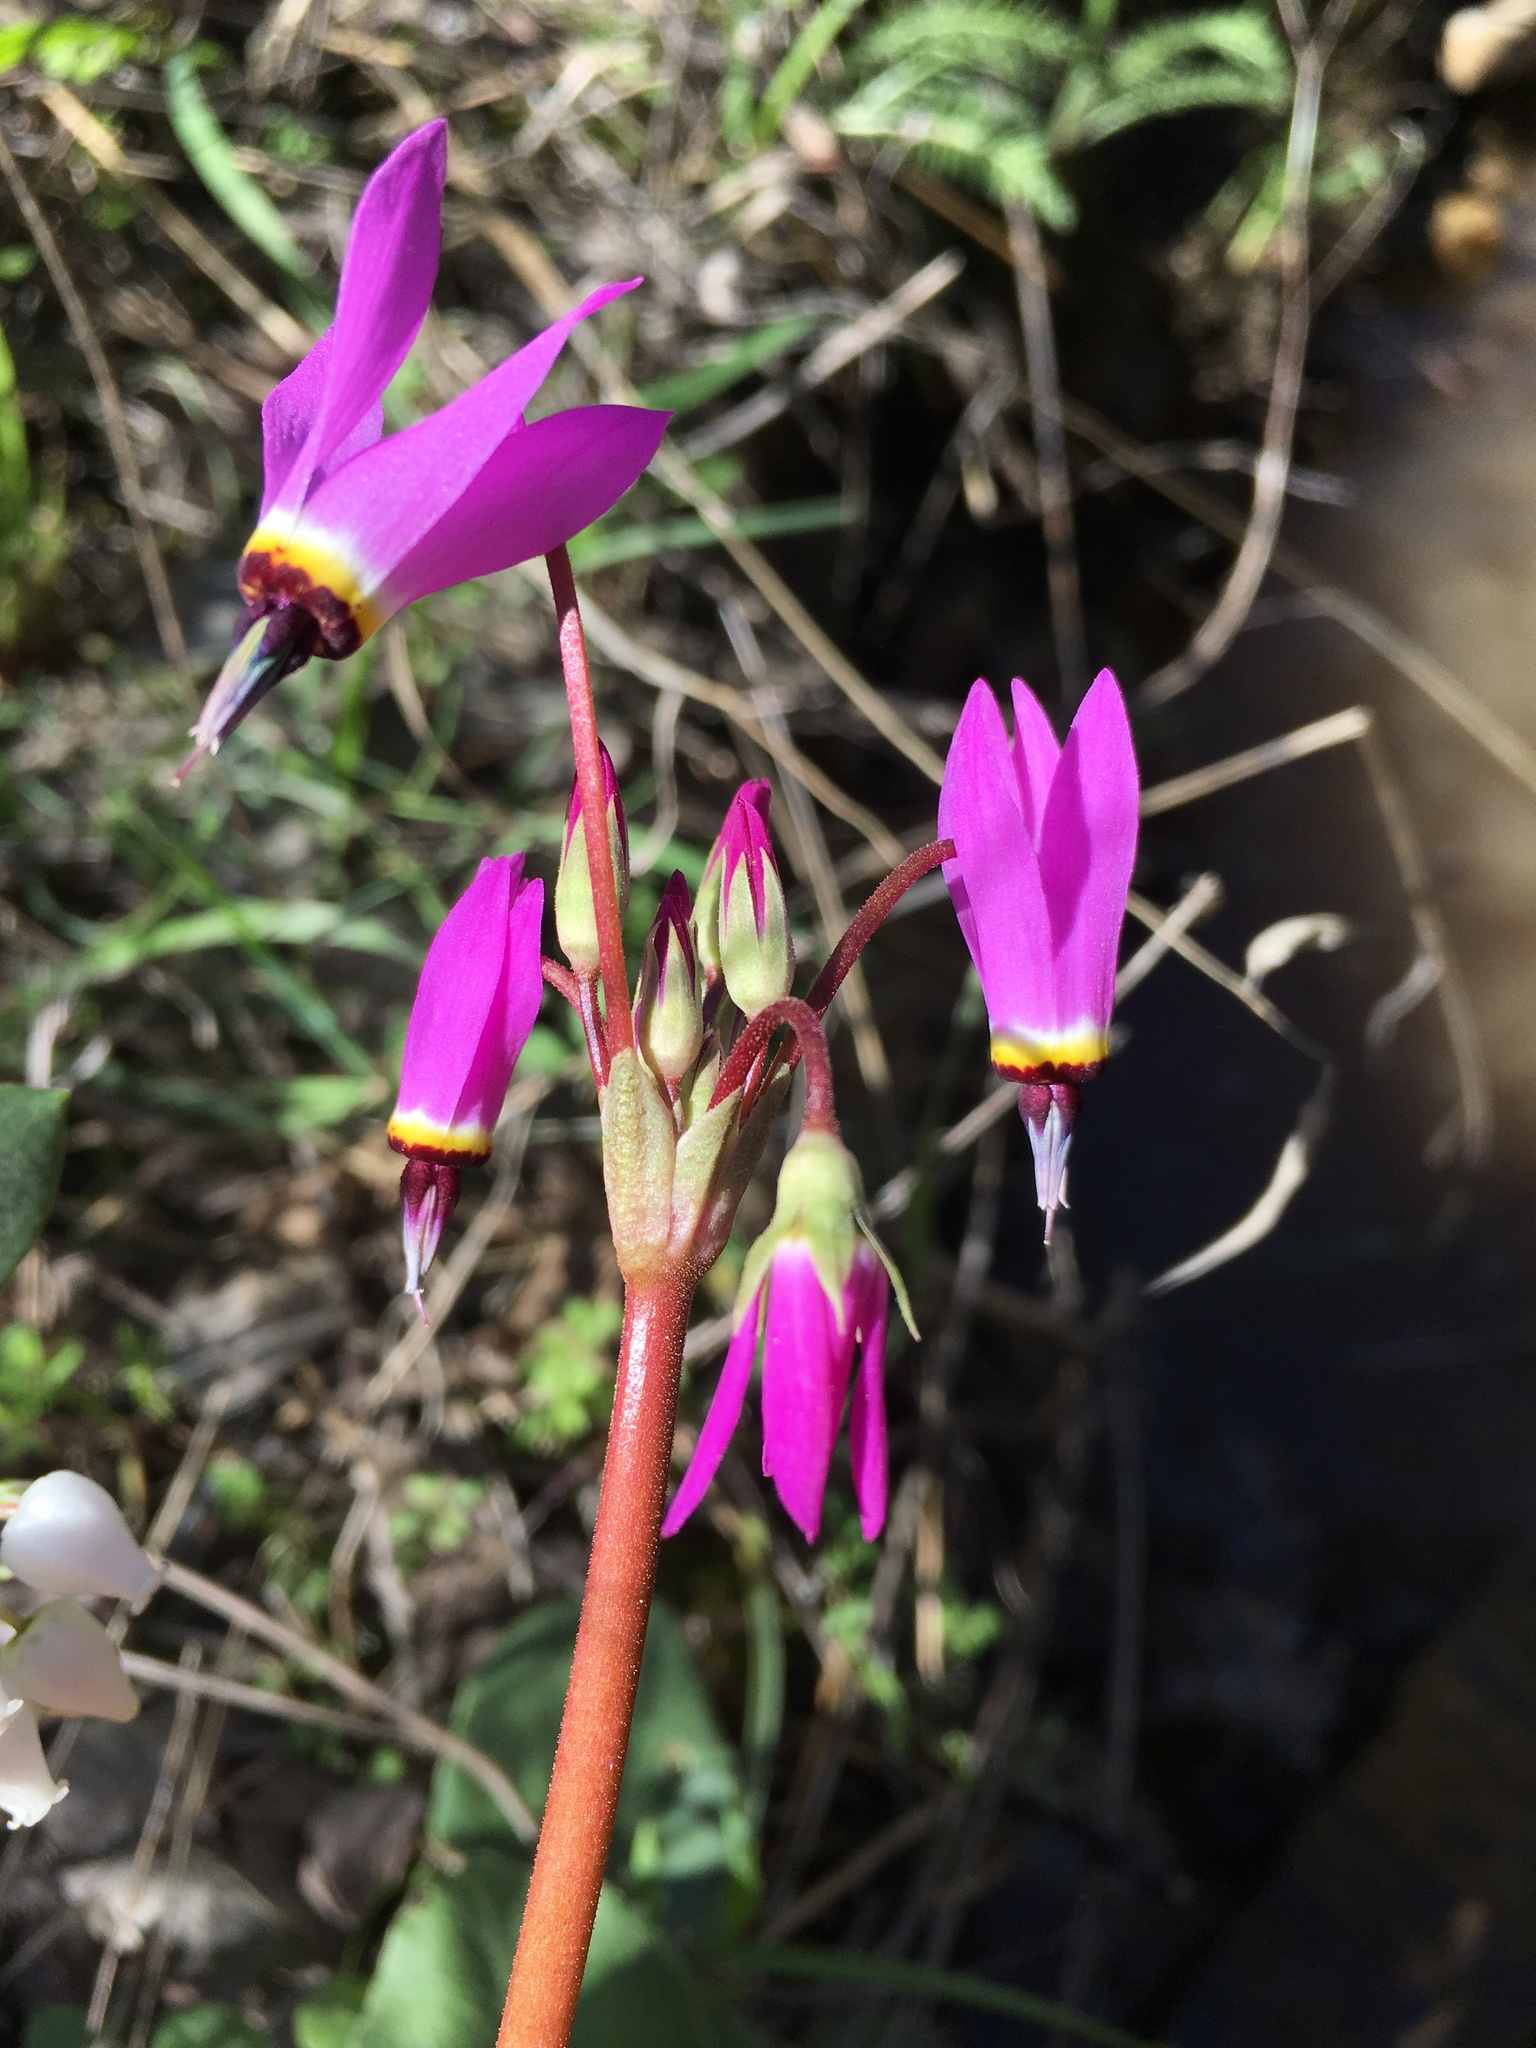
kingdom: Plantae
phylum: Tracheophyta
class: Magnoliopsida
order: Ericales
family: Primulaceae
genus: Dodecatheon
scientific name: Dodecatheon hendersonii
